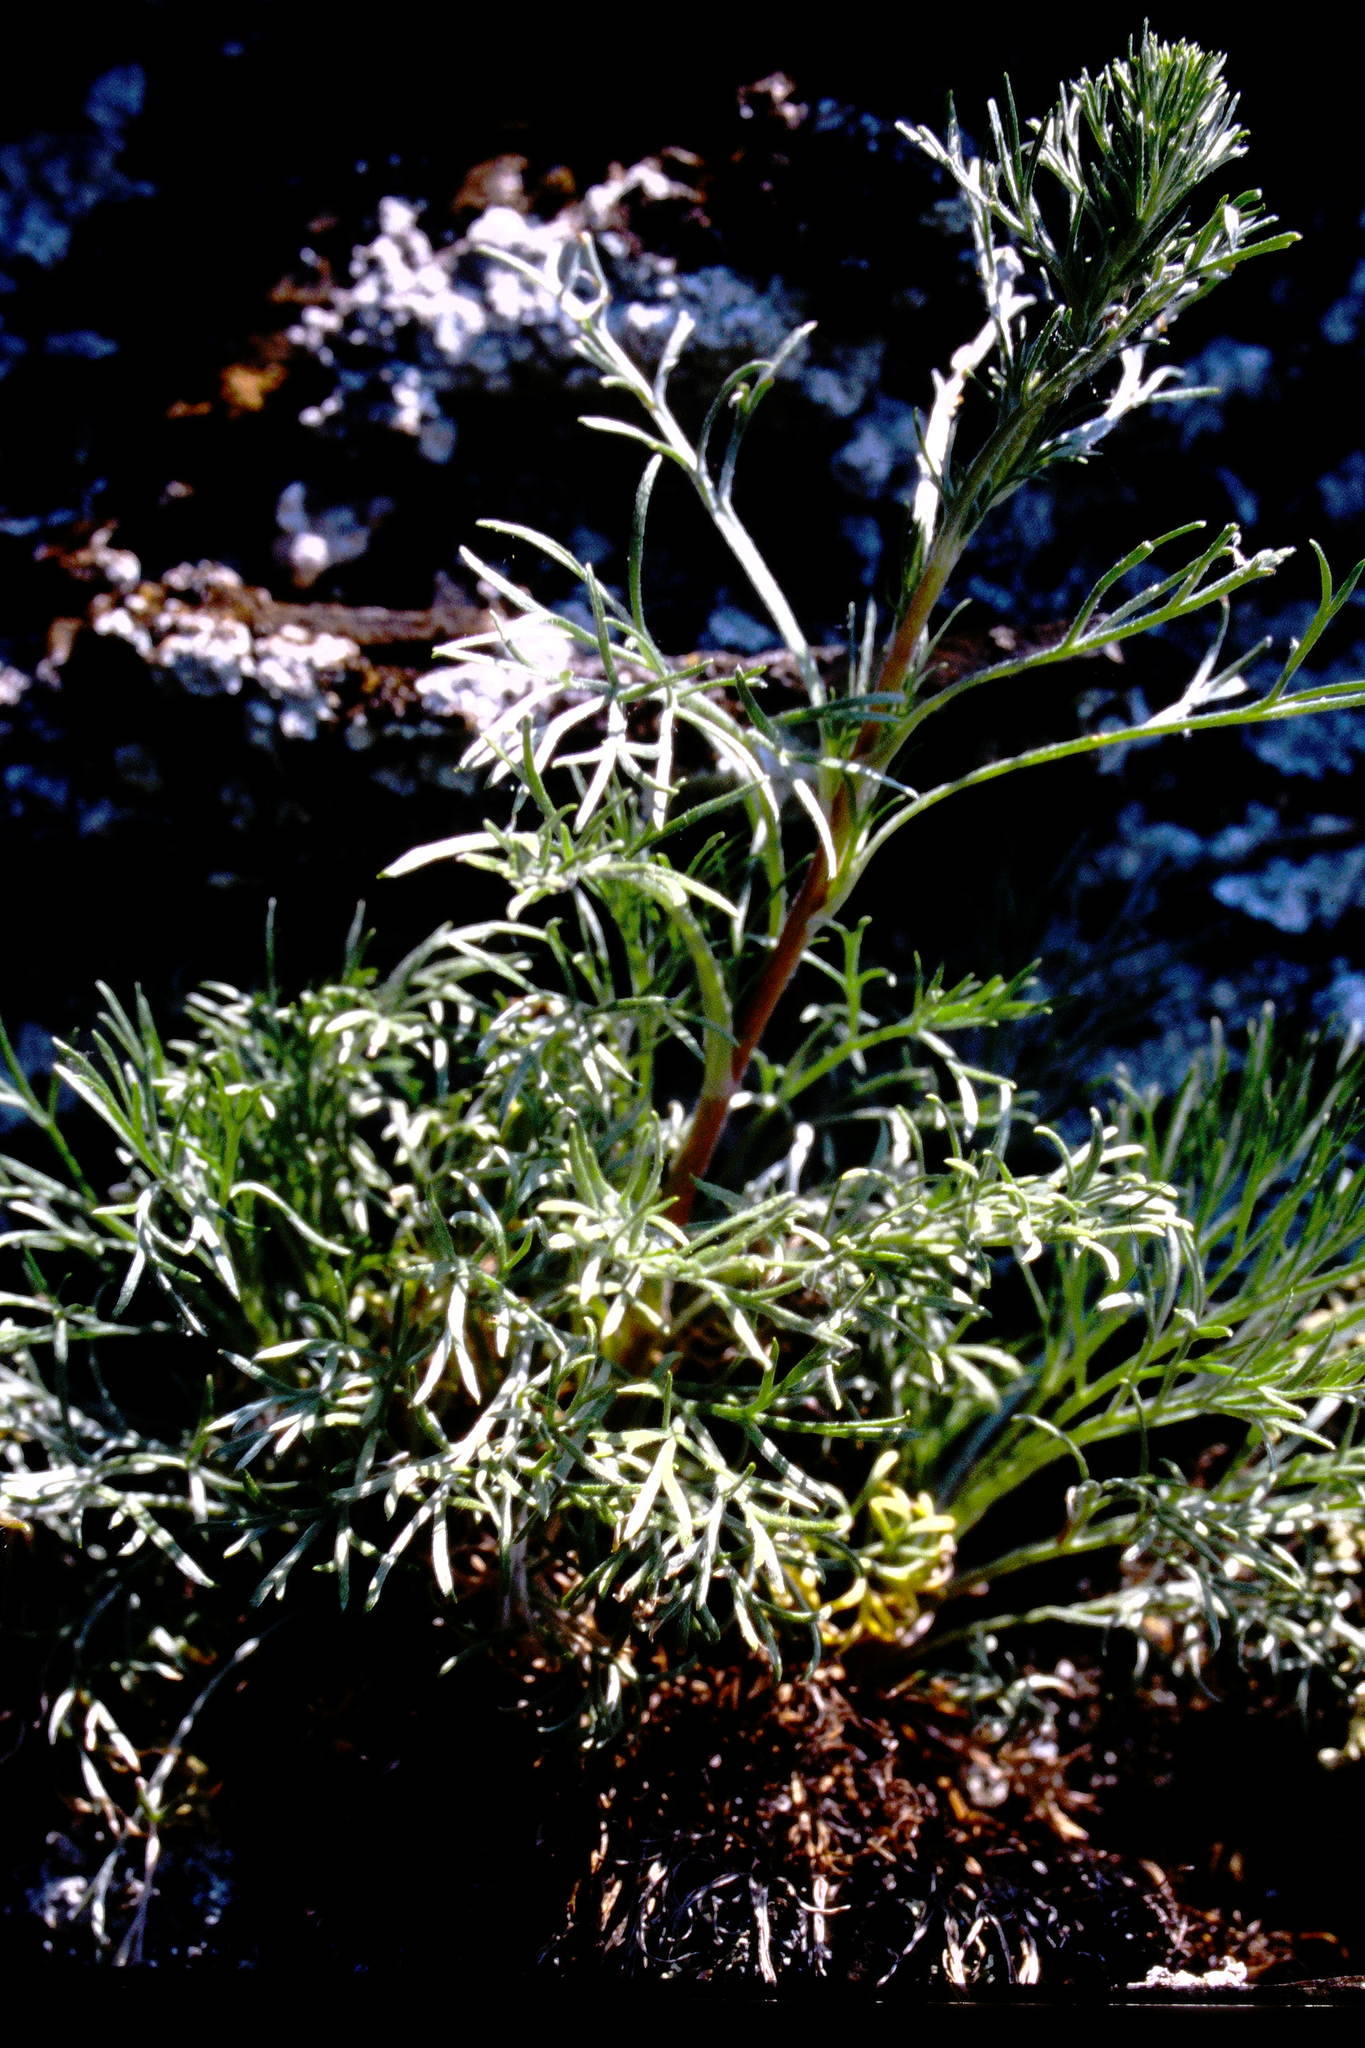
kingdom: Plantae
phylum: Tracheophyta
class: Magnoliopsida
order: Asterales
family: Asteraceae
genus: Artemisia
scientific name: Artemisia campestris
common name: Field wormwood
